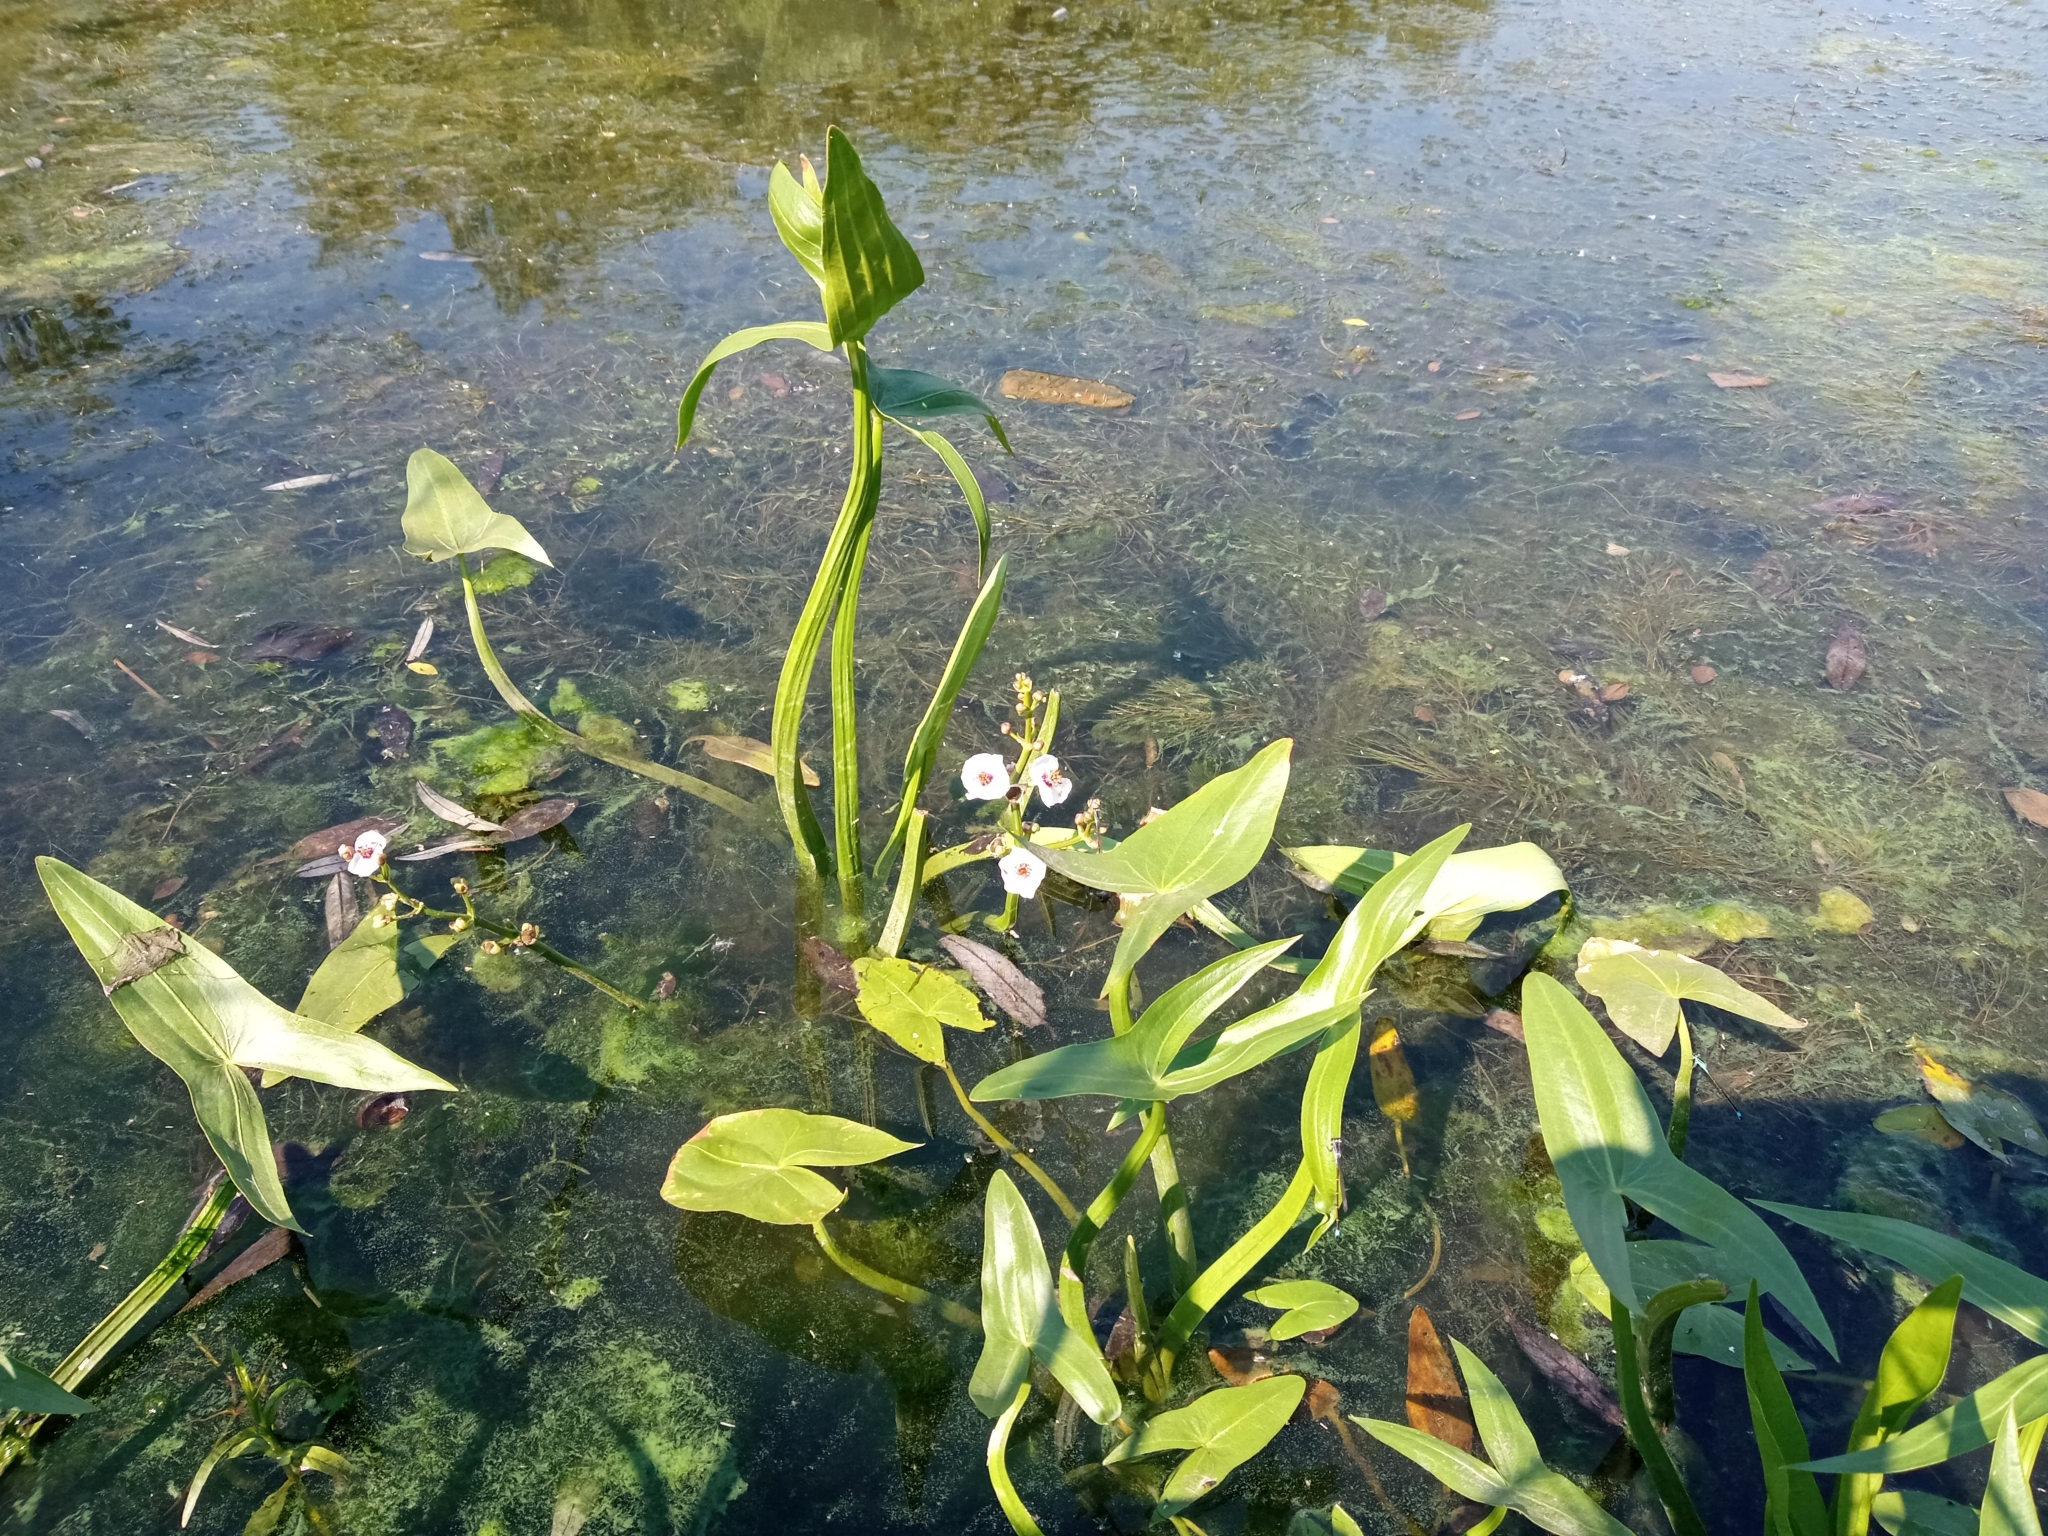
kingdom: Plantae
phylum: Tracheophyta
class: Liliopsida
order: Alismatales
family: Alismataceae
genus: Sagittaria
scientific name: Sagittaria sagittifolia
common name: Arrowhead
